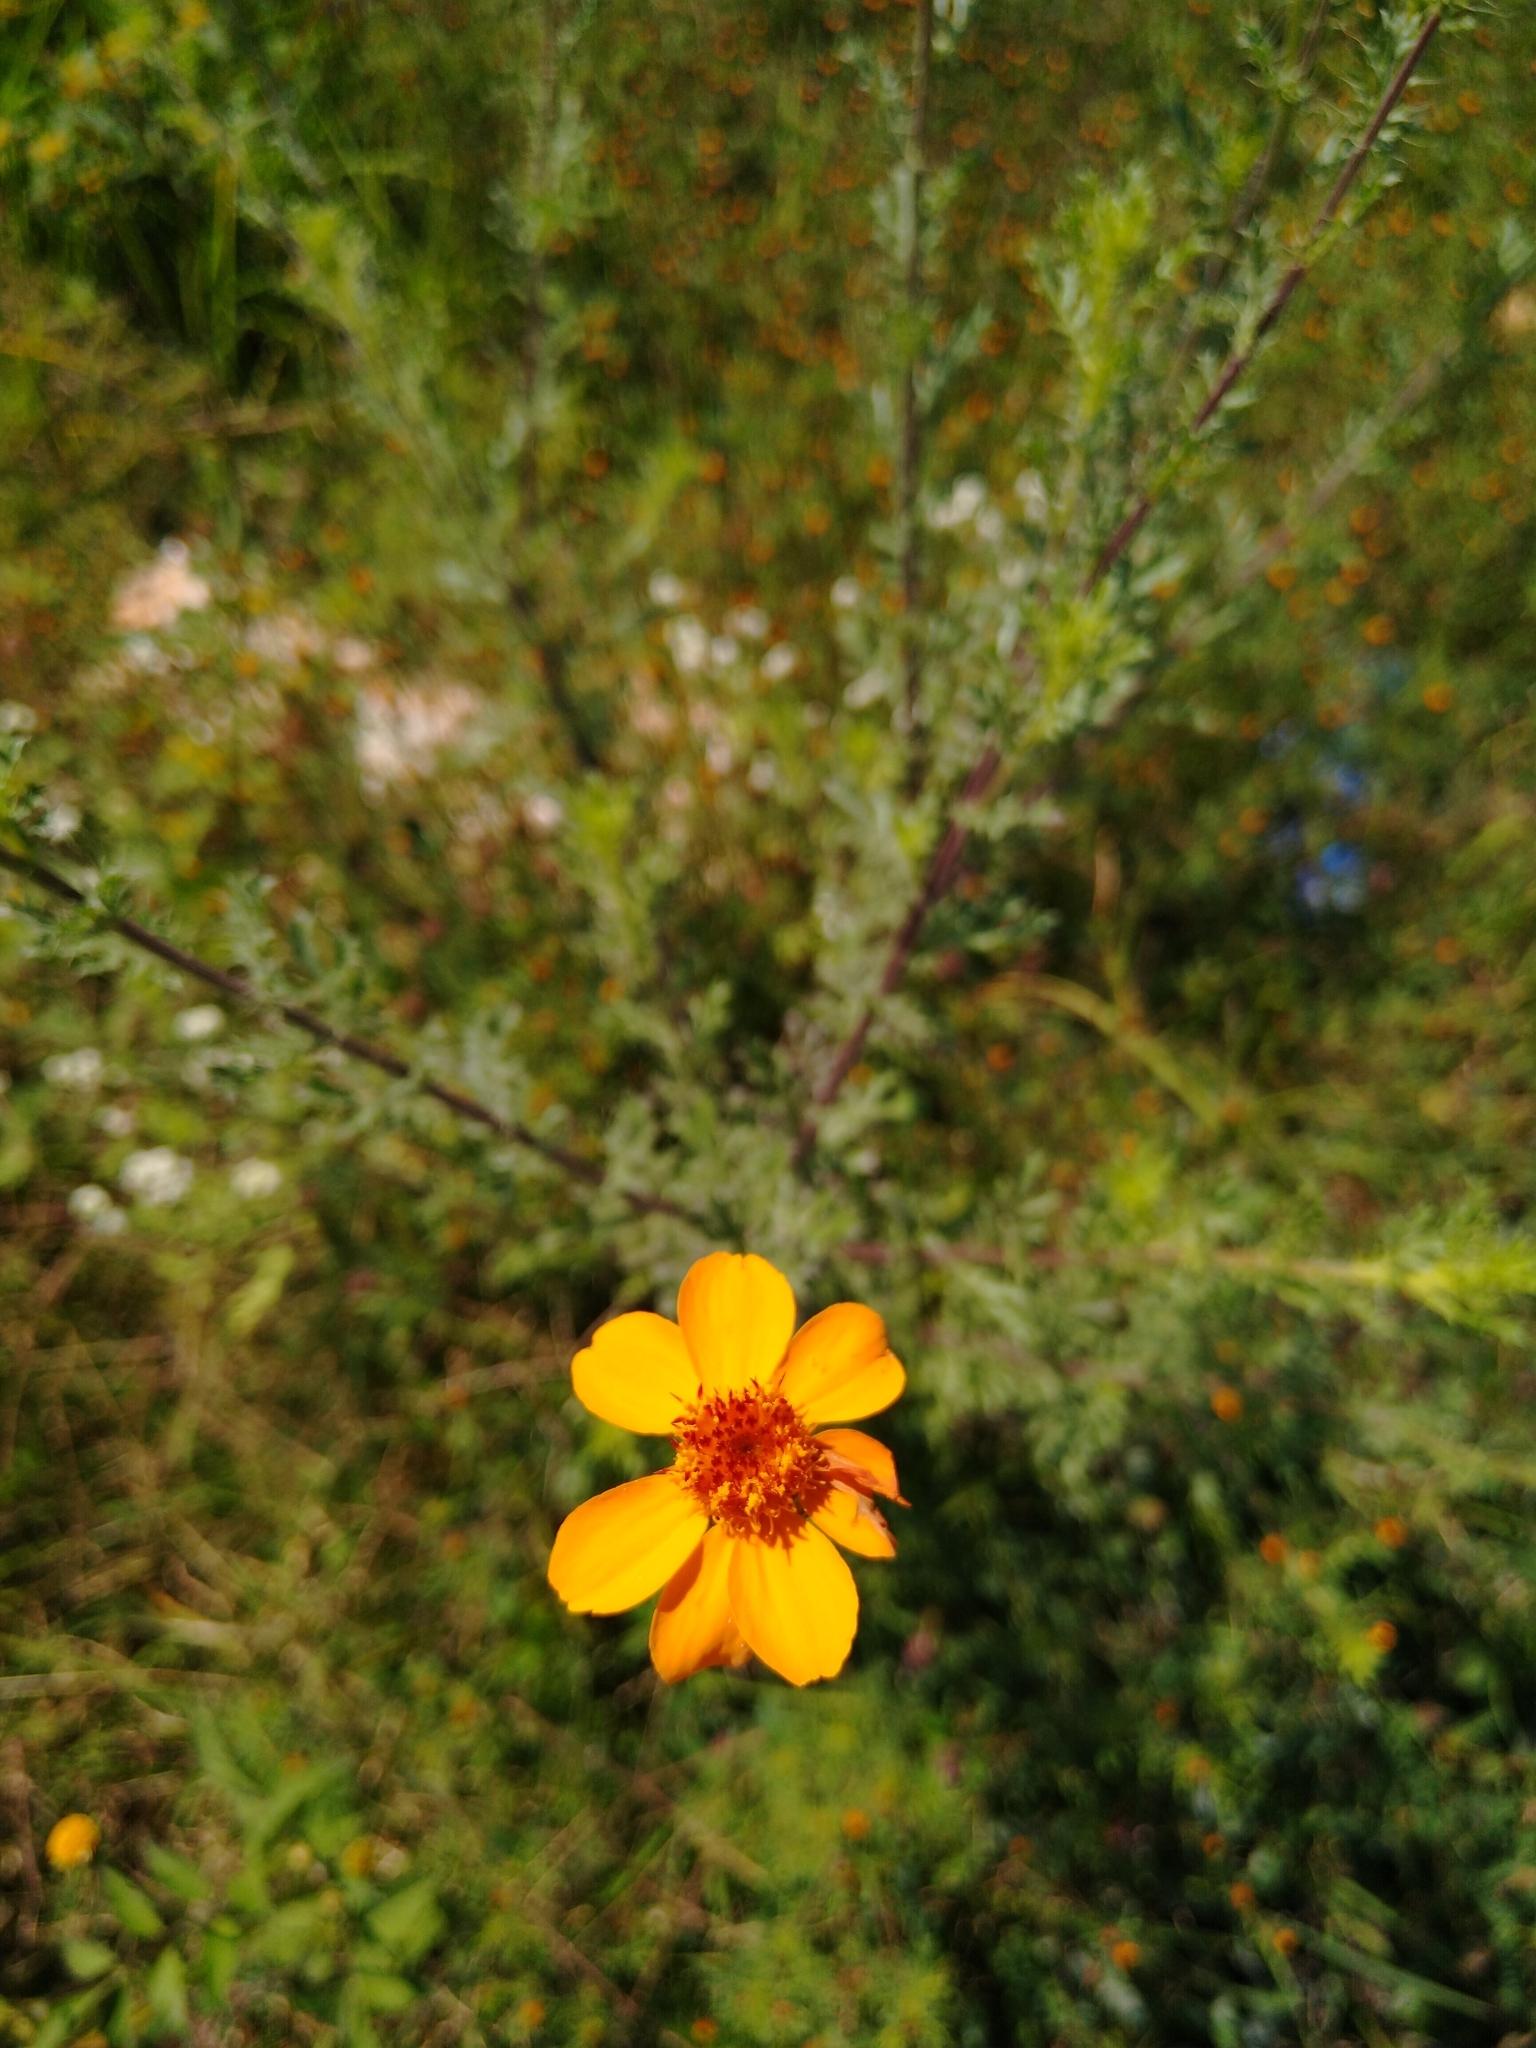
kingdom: Plantae
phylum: Tracheophyta
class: Magnoliopsida
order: Asterales
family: Asteraceae
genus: Adenophyllum
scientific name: Adenophyllum cancellatum
